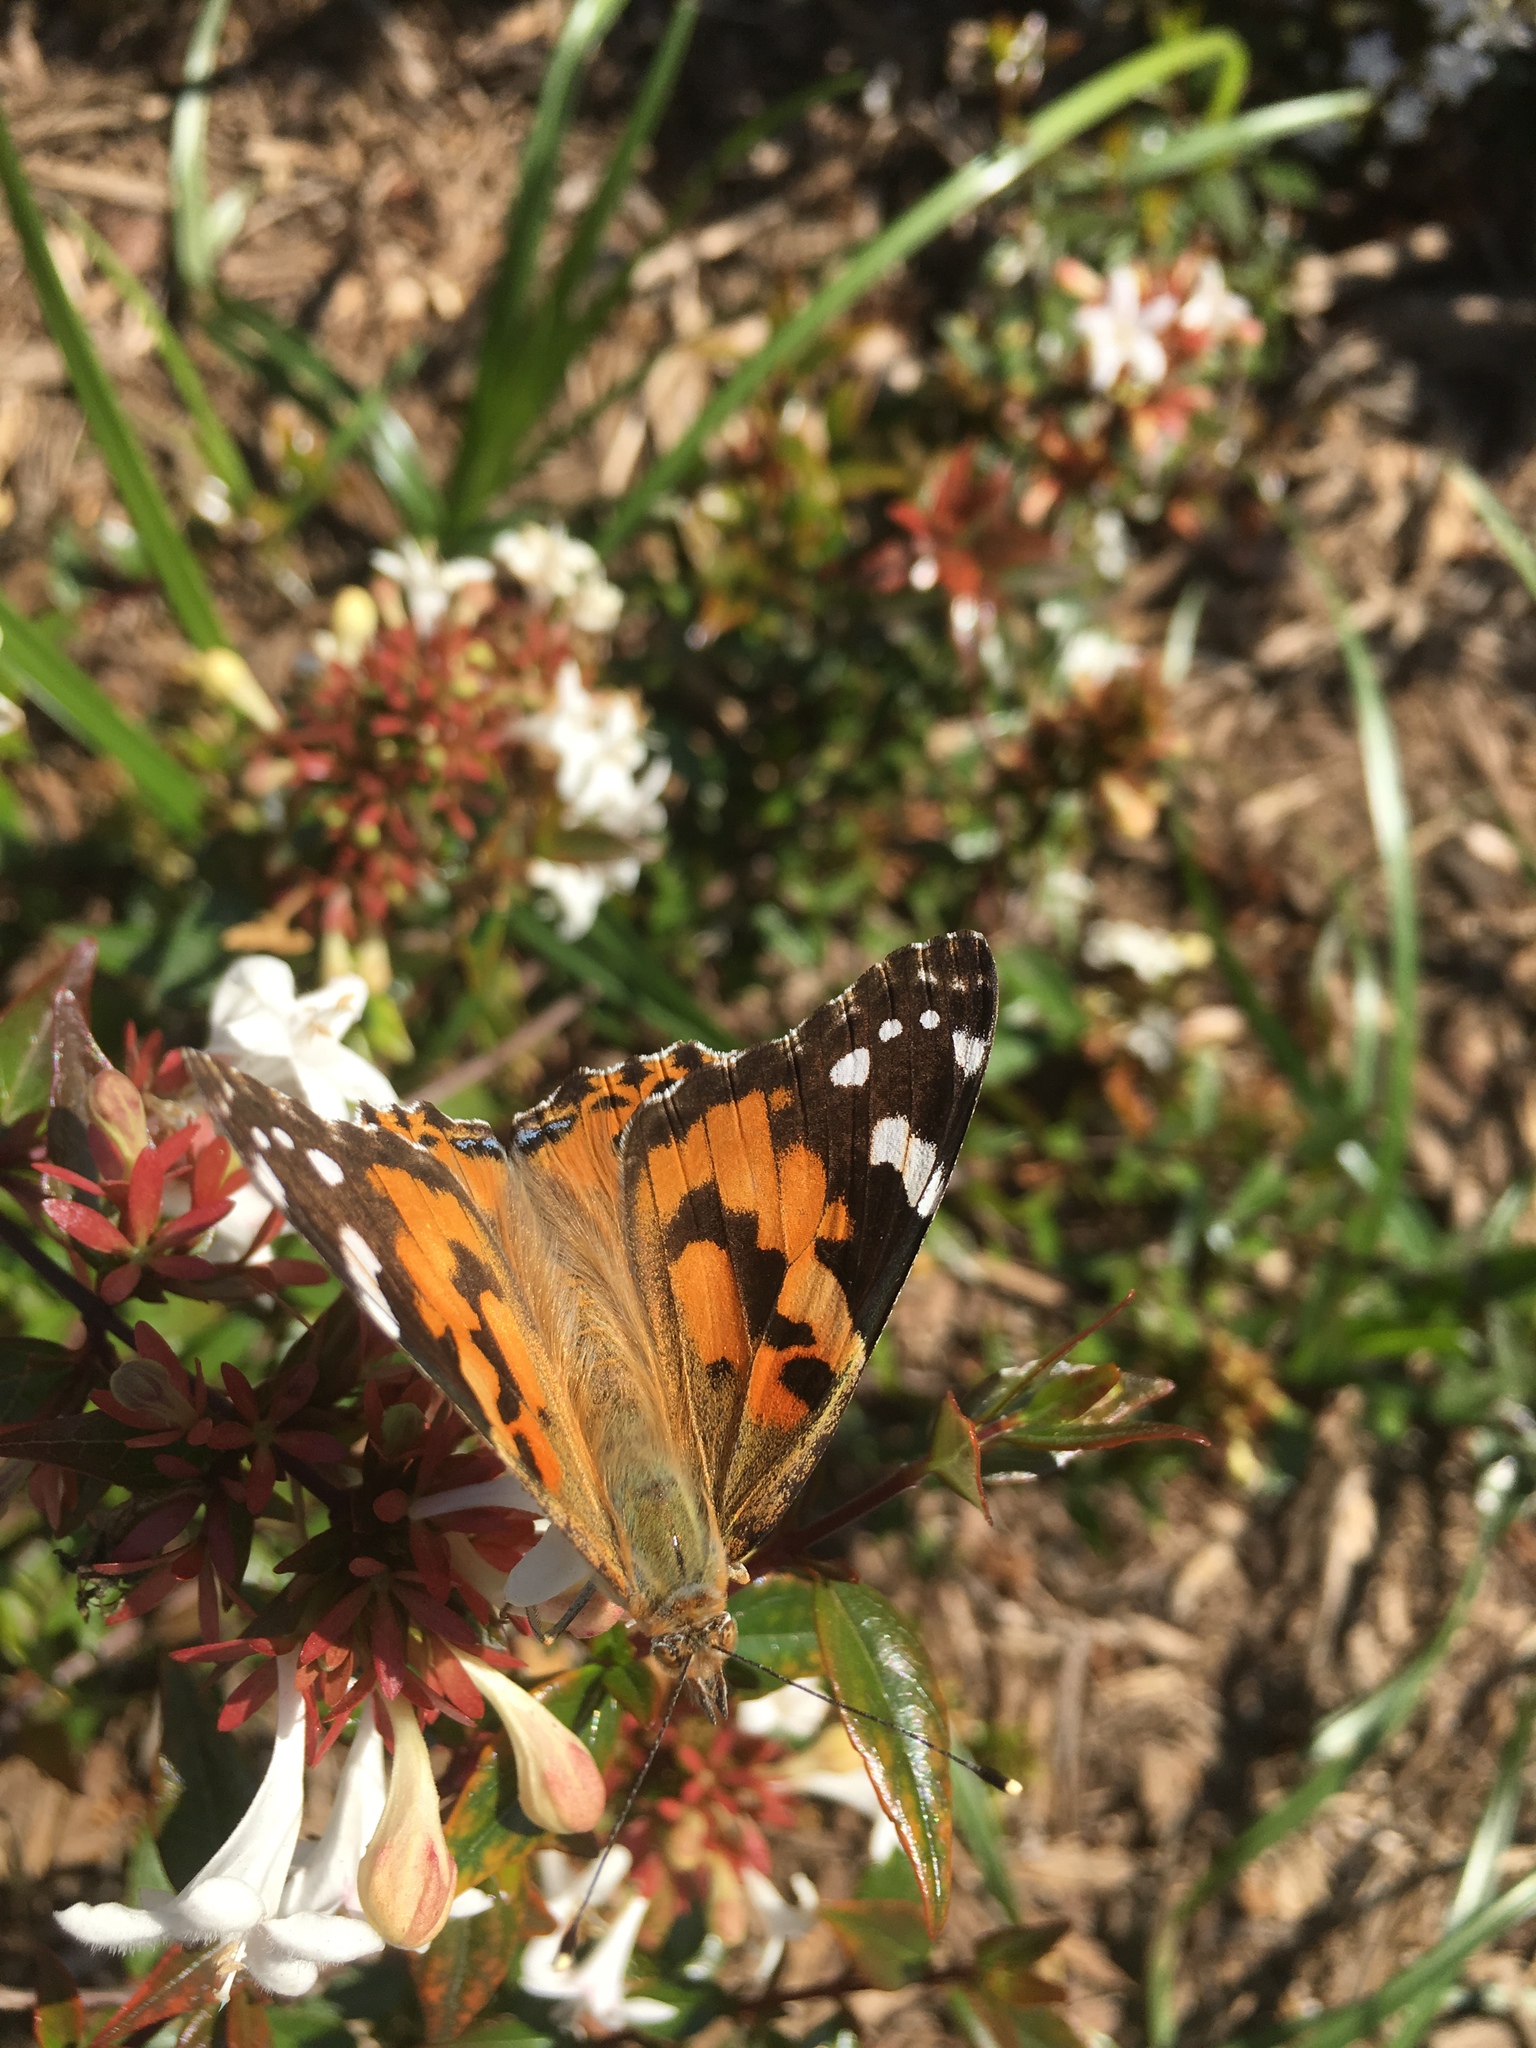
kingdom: Animalia
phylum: Arthropoda
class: Insecta
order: Lepidoptera
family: Nymphalidae
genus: Vanessa
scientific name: Vanessa cardui
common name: Painted lady
